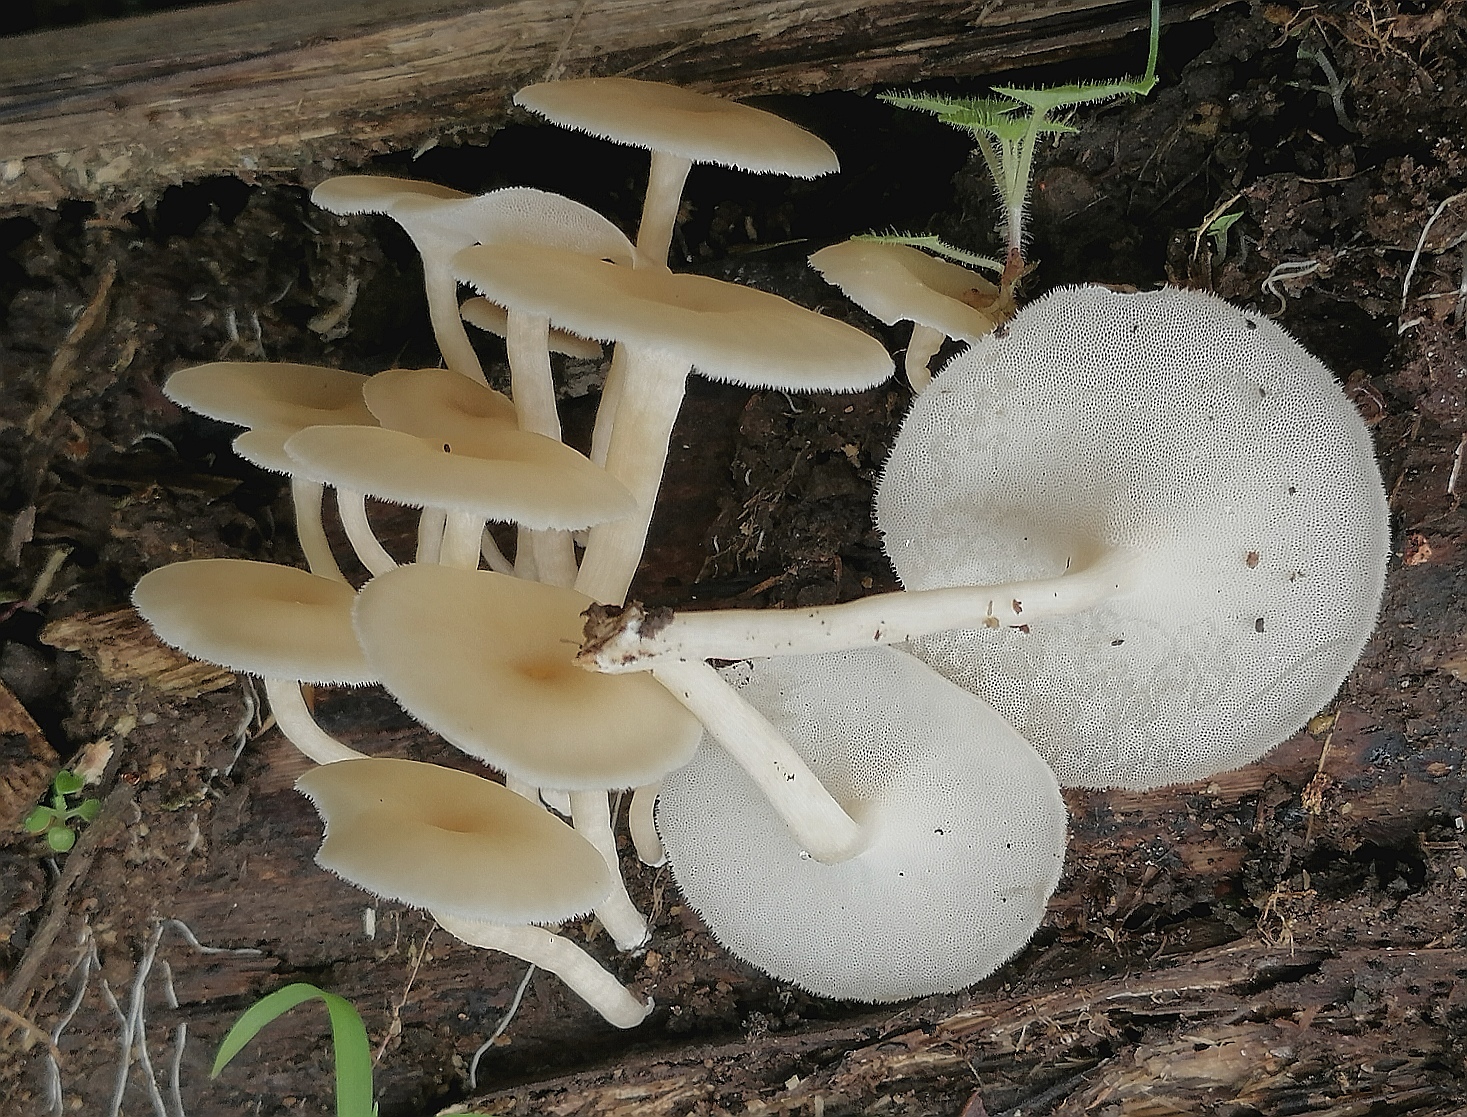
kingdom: Fungi
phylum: Basidiomycota
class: Agaricomycetes
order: Polyporales
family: Polyporaceae
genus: Lentinus
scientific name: Lentinus flexipes
